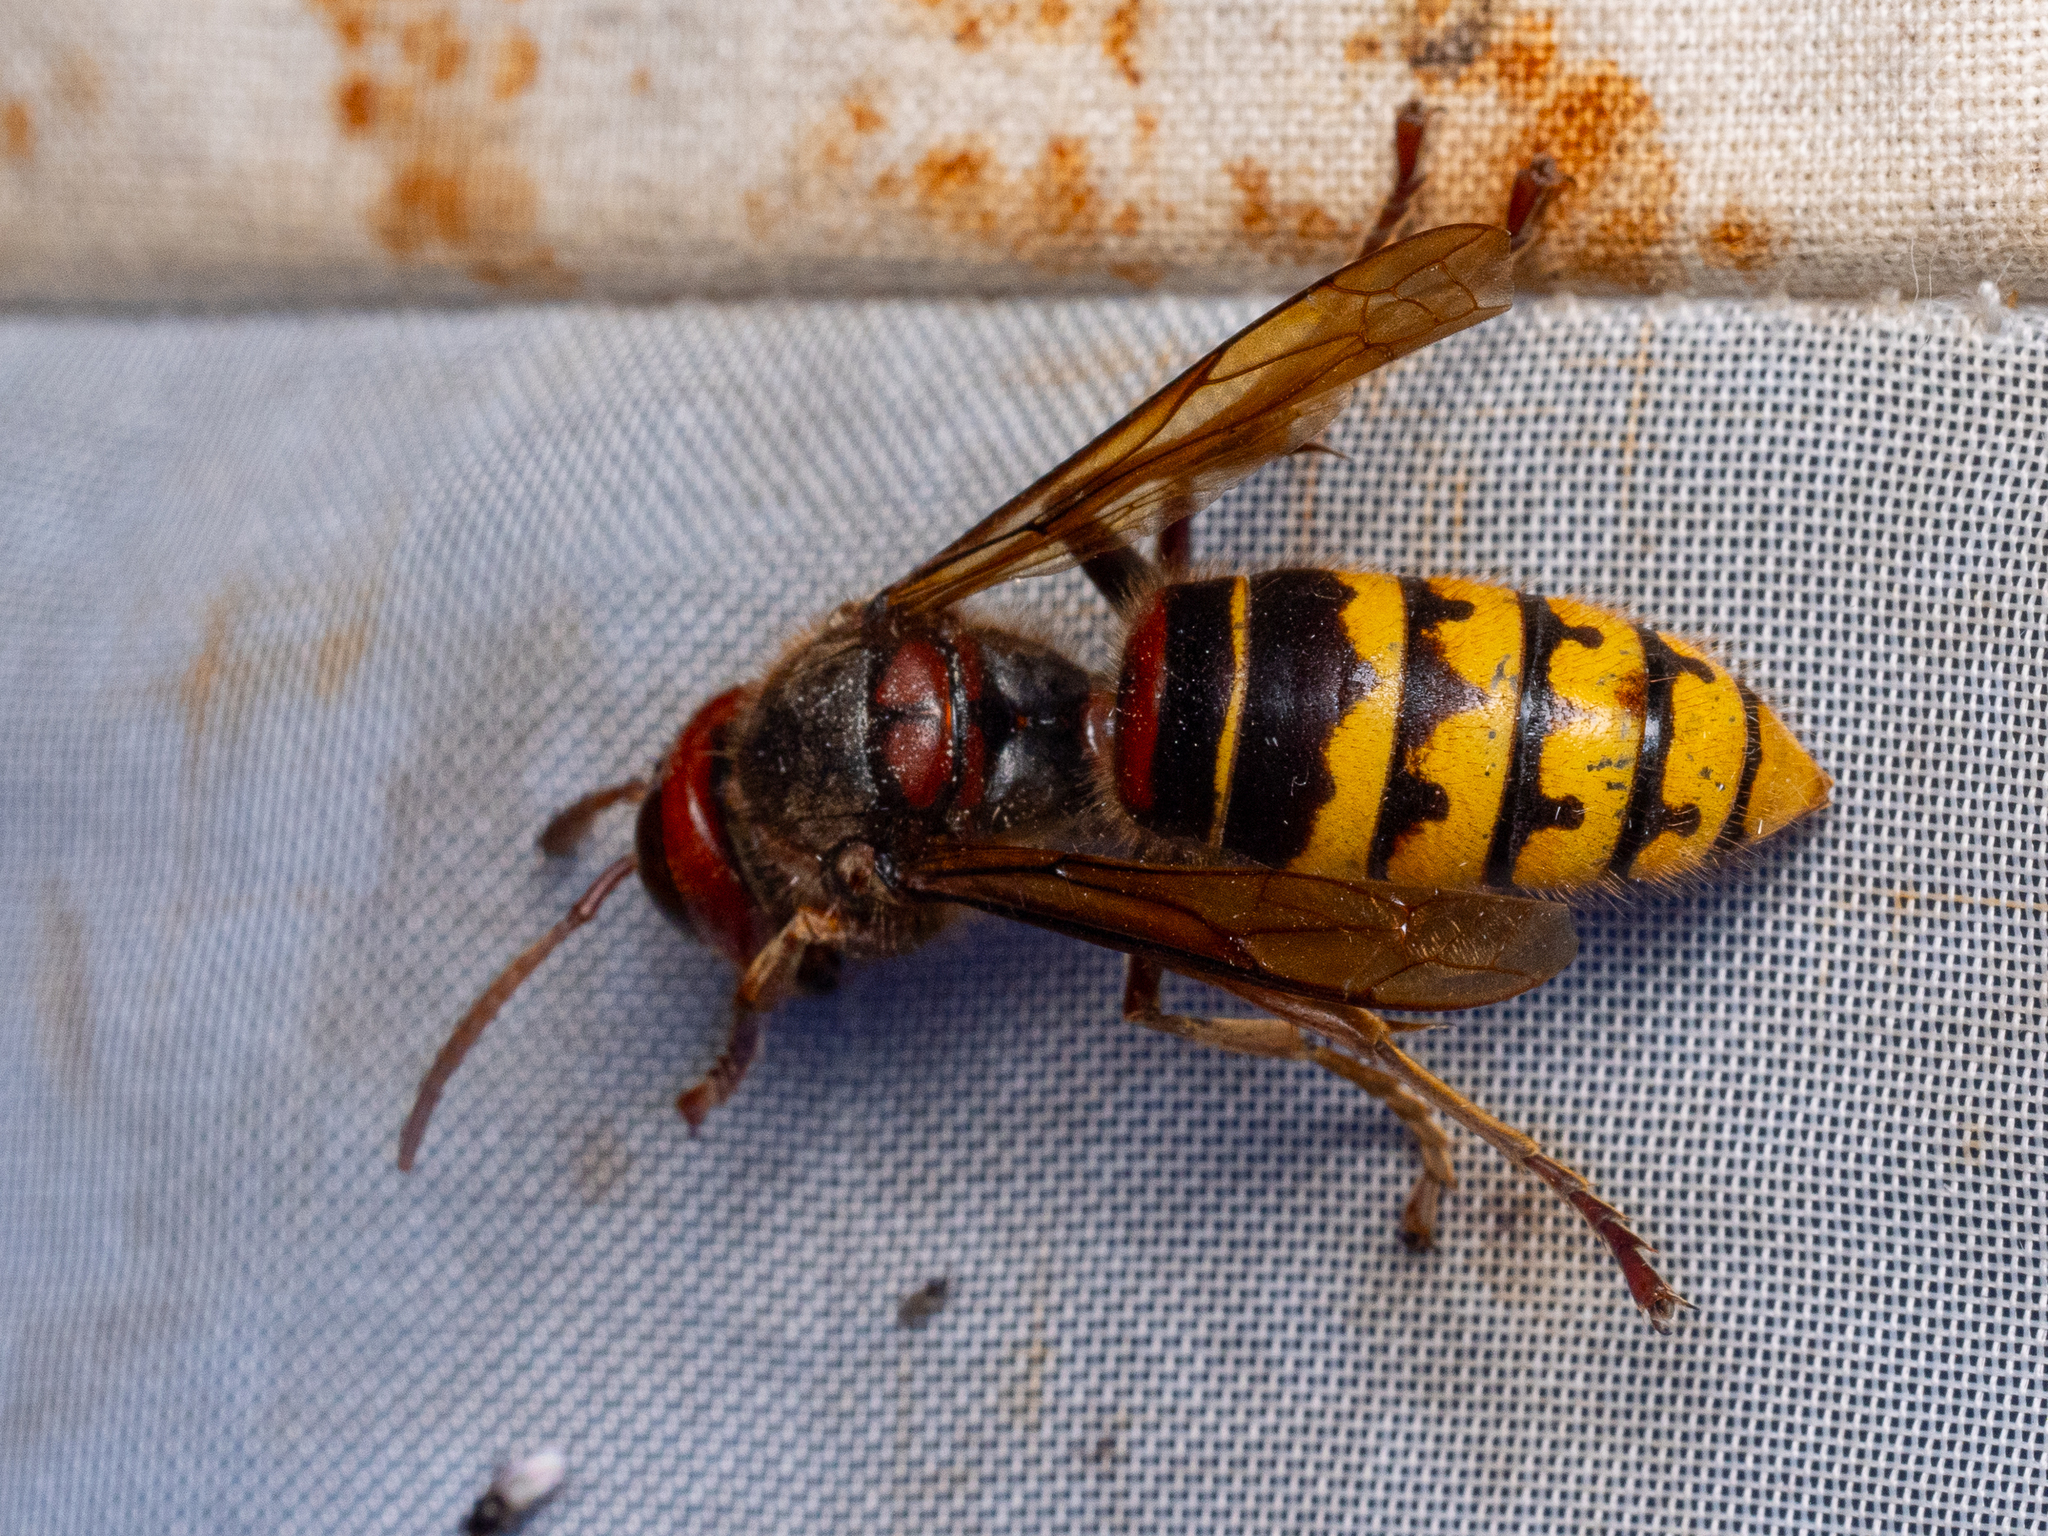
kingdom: Animalia
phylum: Arthropoda
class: Insecta
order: Hymenoptera
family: Vespidae
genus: Vespa
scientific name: Vespa crabro
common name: Hornet
